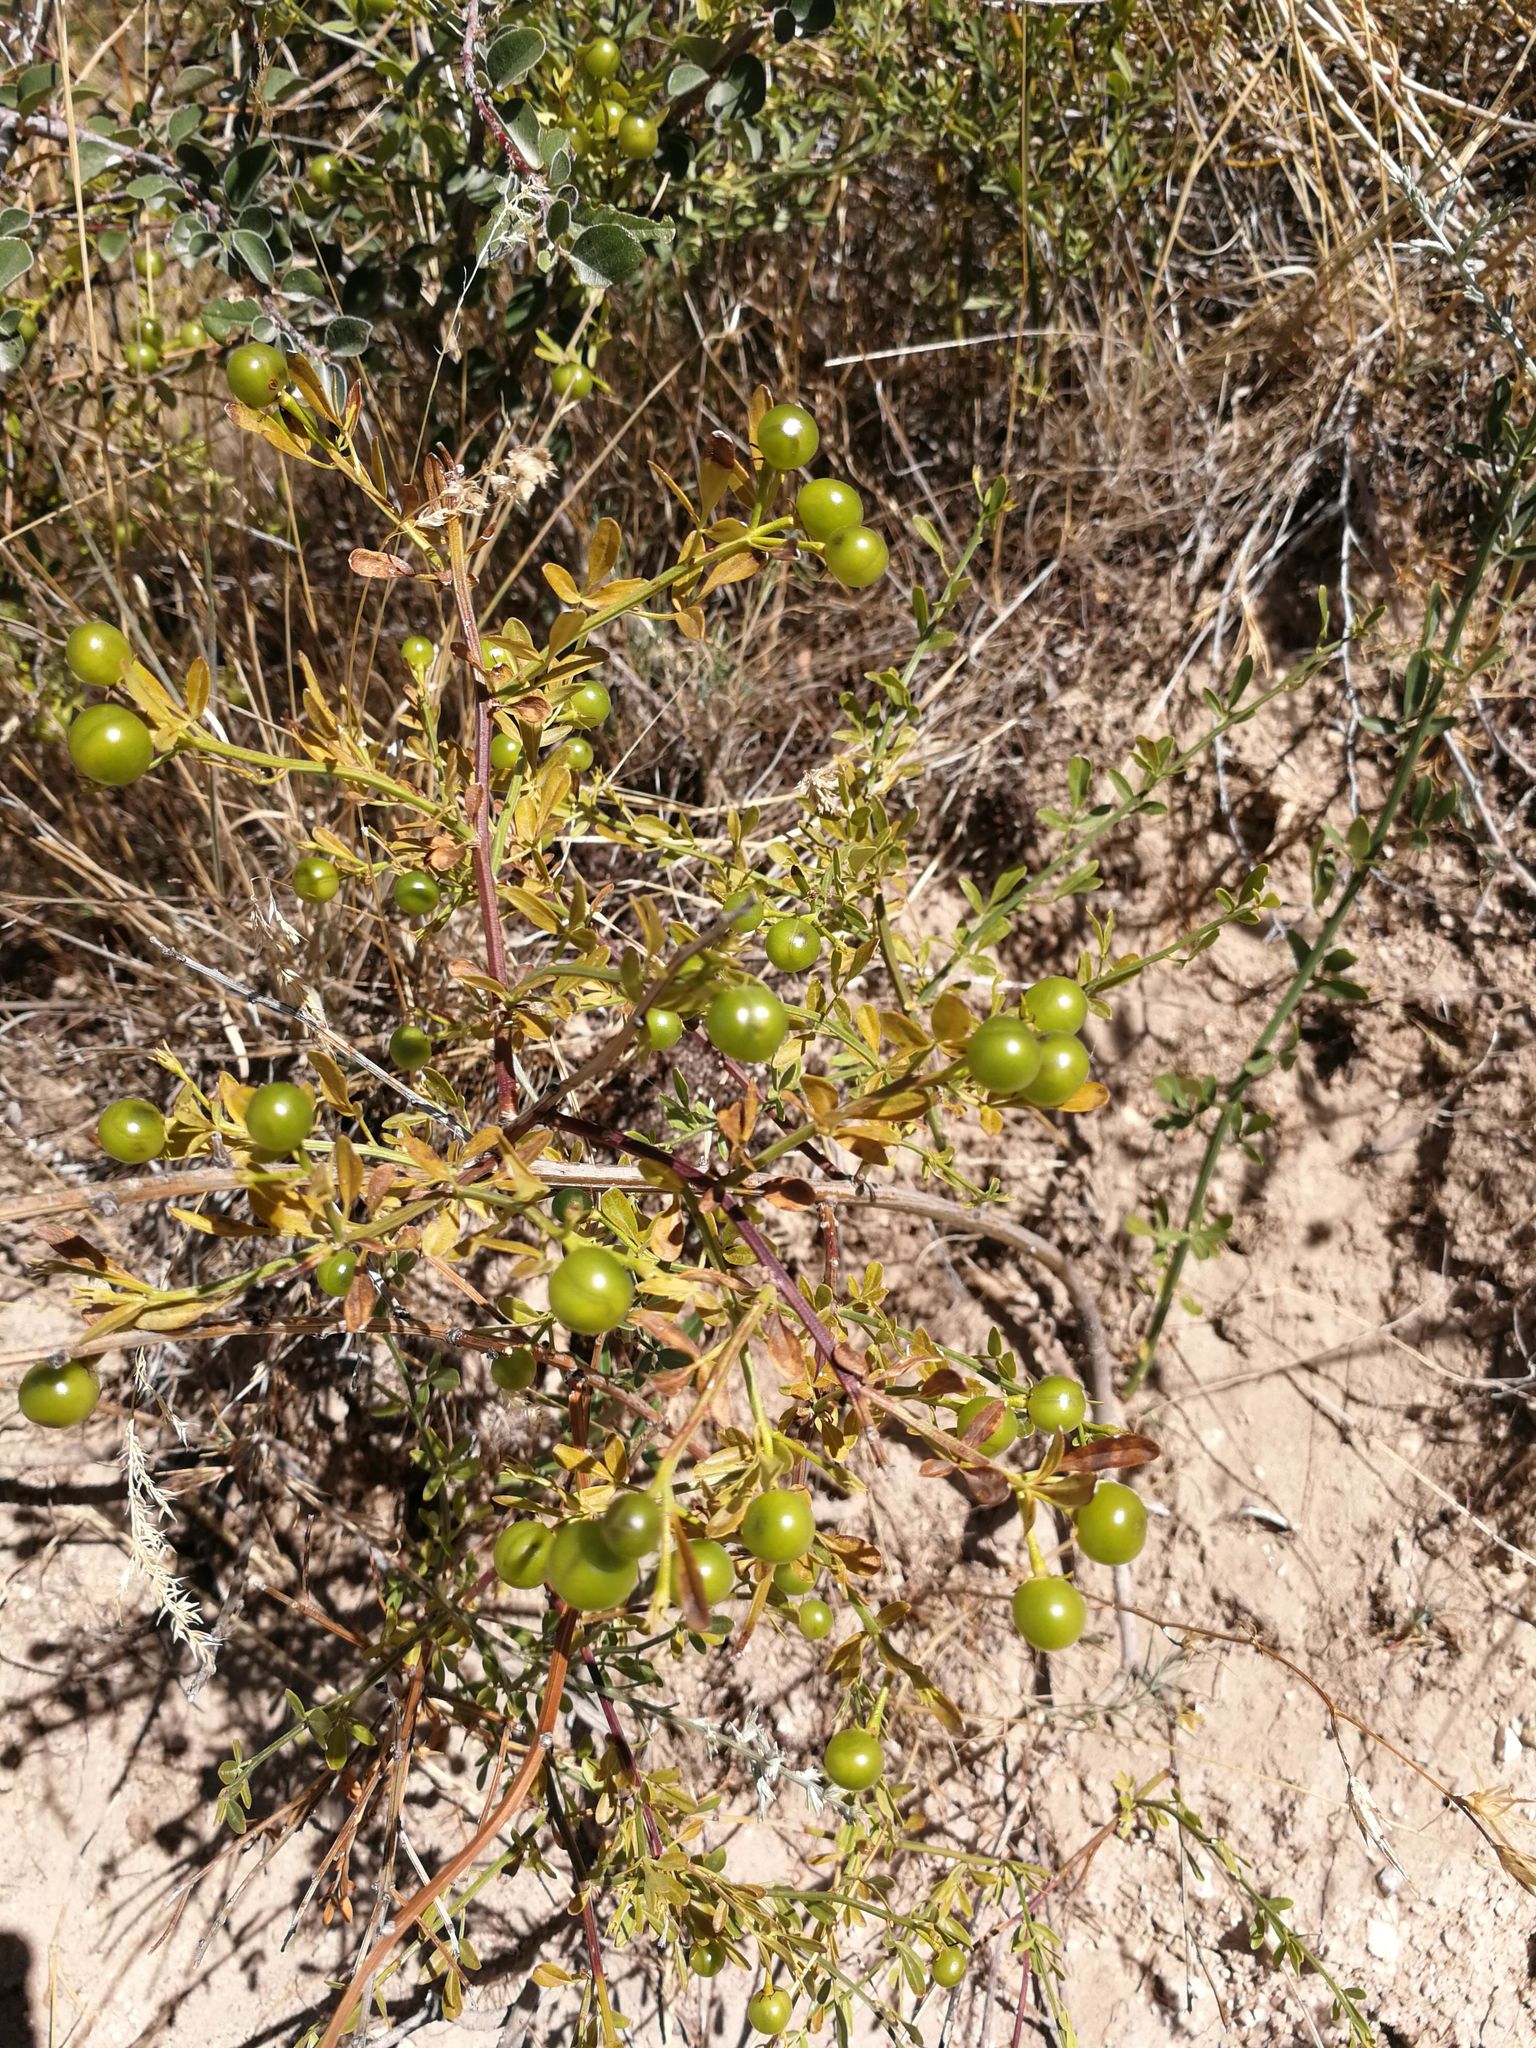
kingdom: Plantae
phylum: Tracheophyta
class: Magnoliopsida
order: Lamiales
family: Oleaceae
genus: Chrysojasminum
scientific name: Chrysojasminum fruticans
